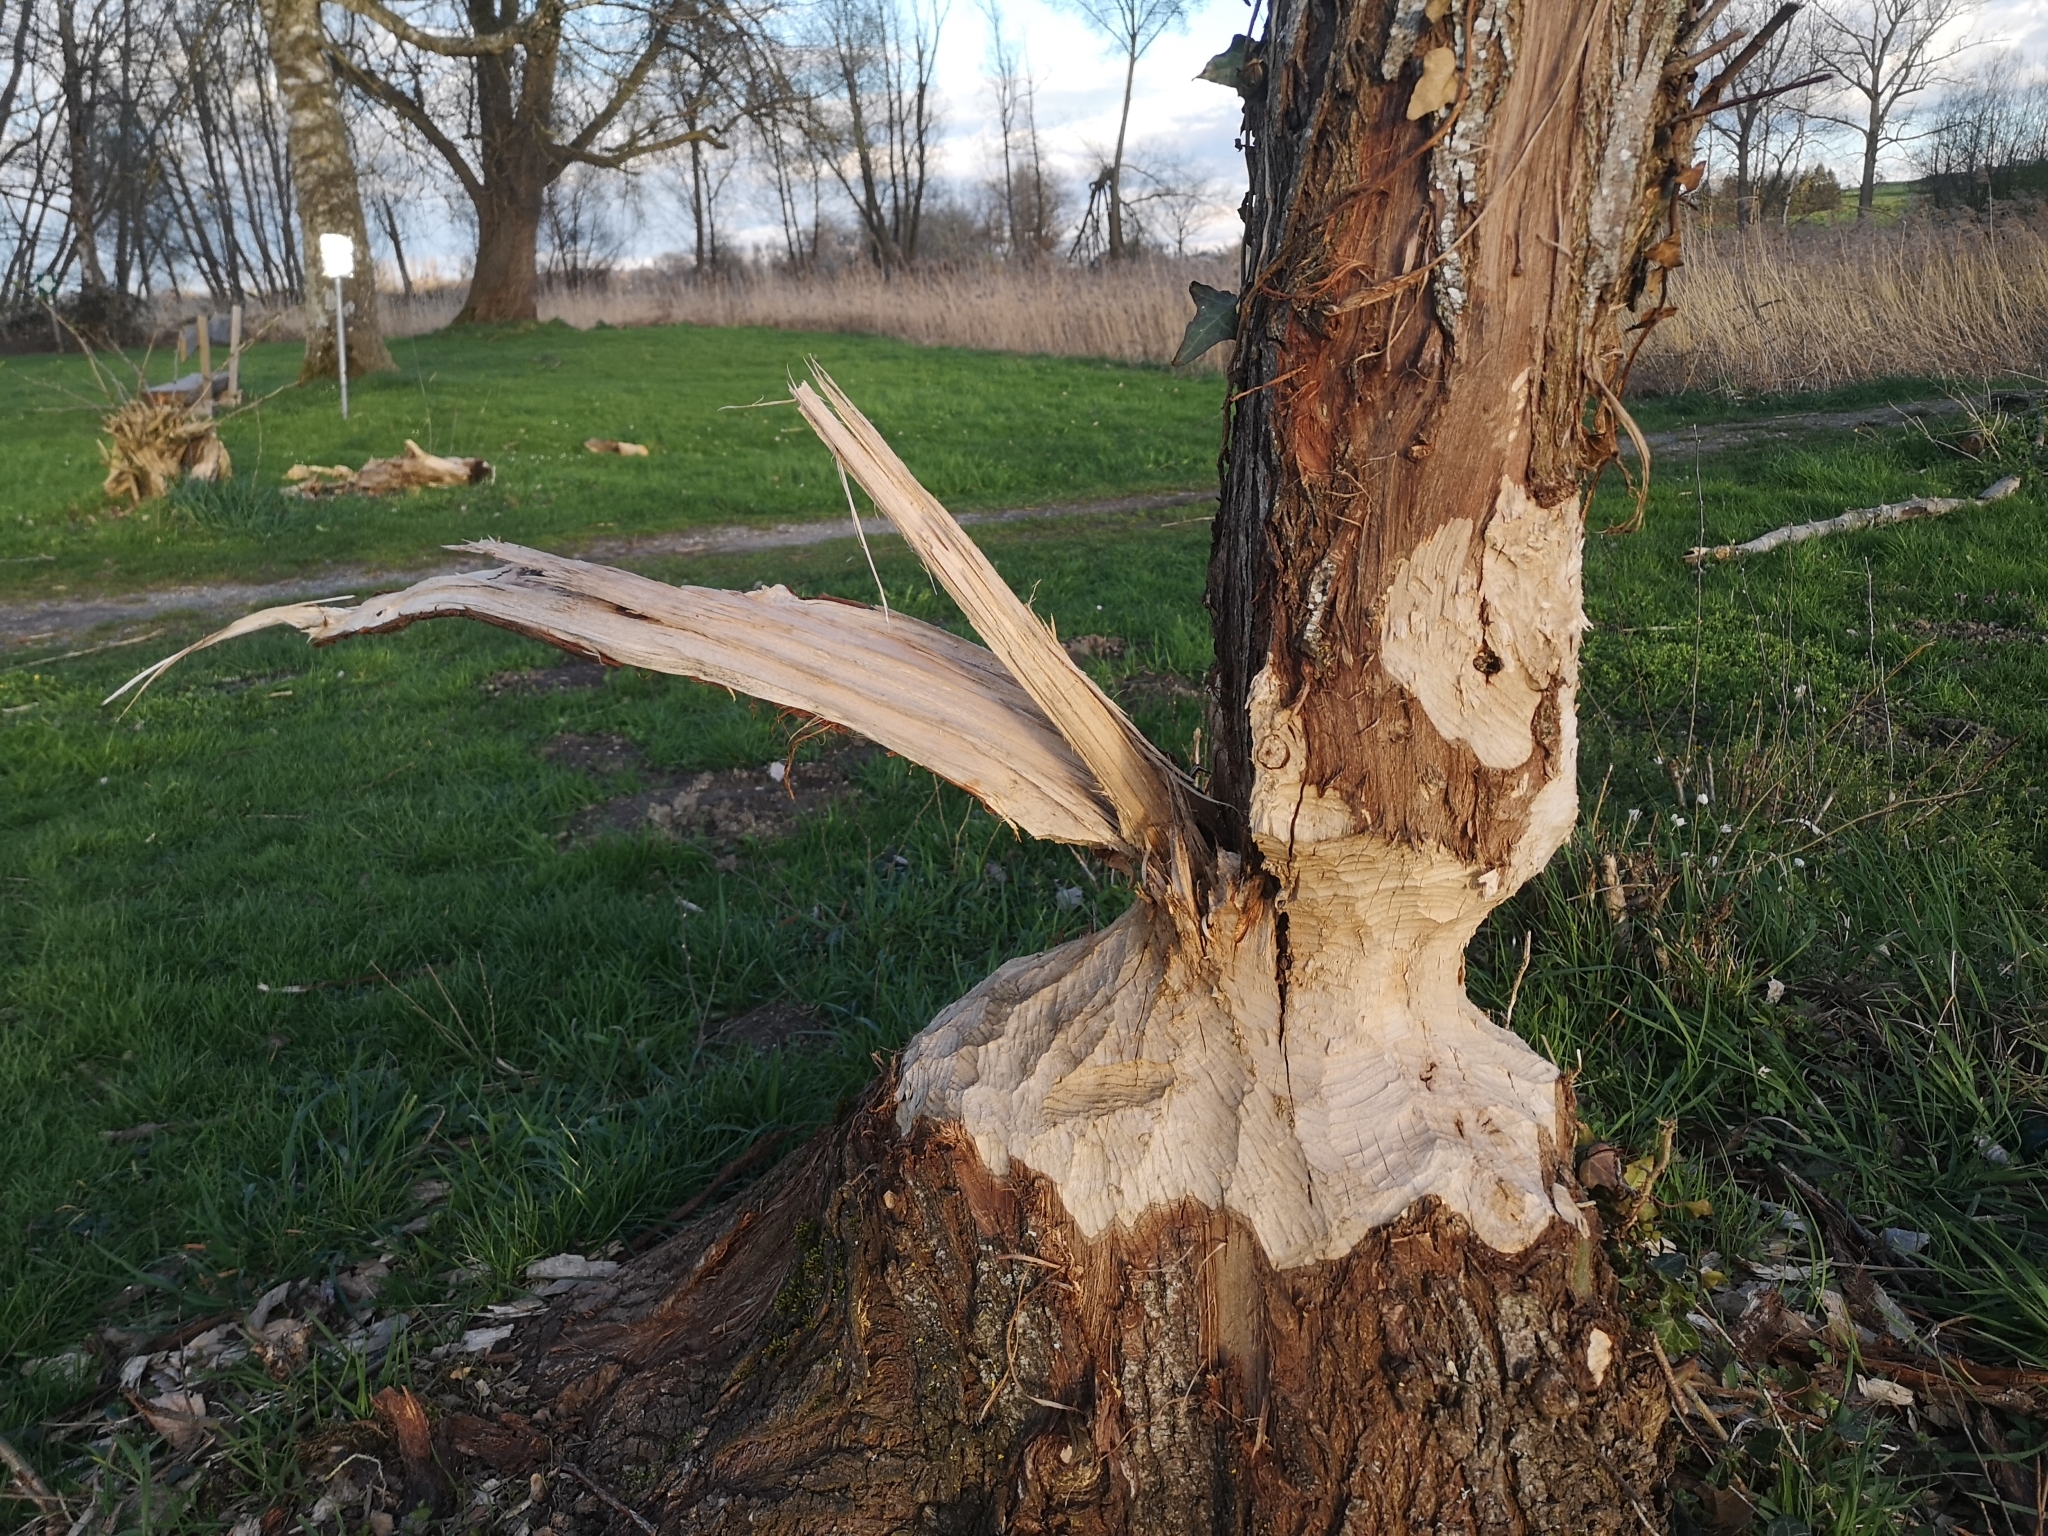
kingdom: Animalia
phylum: Chordata
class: Mammalia
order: Rodentia
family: Castoridae
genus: Castor
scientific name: Castor fiber
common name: Eurasian beaver
